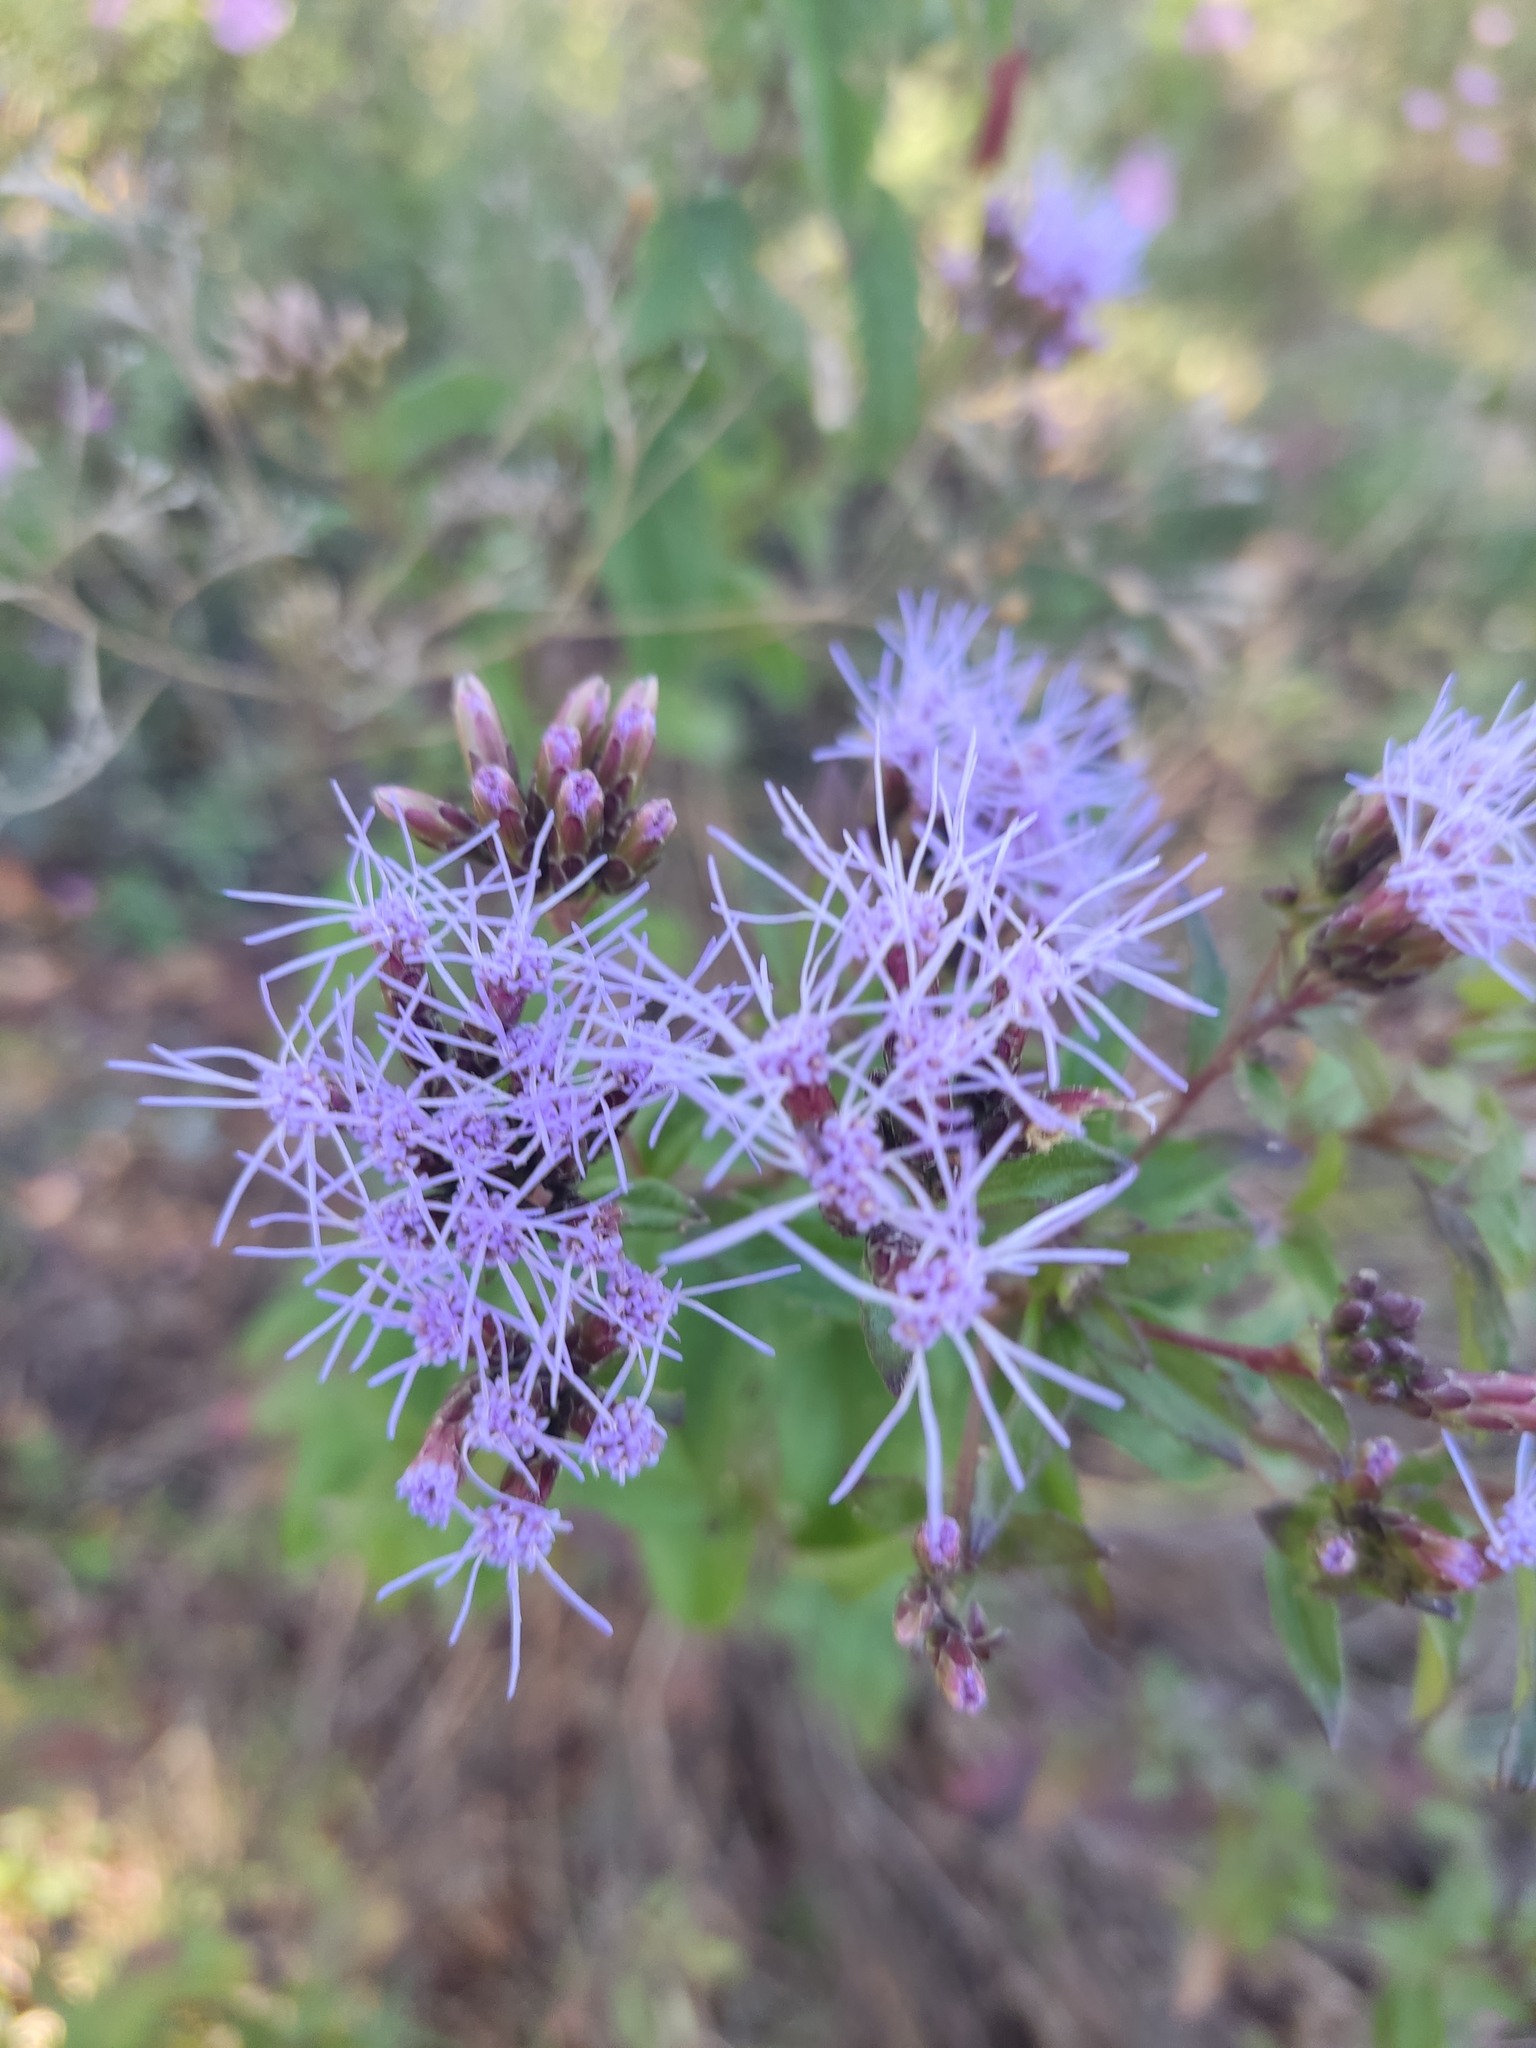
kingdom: Plantae
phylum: Tracheophyta
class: Magnoliopsida
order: Asterales
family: Asteraceae
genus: Chromolaena
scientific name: Chromolaena pulchella
